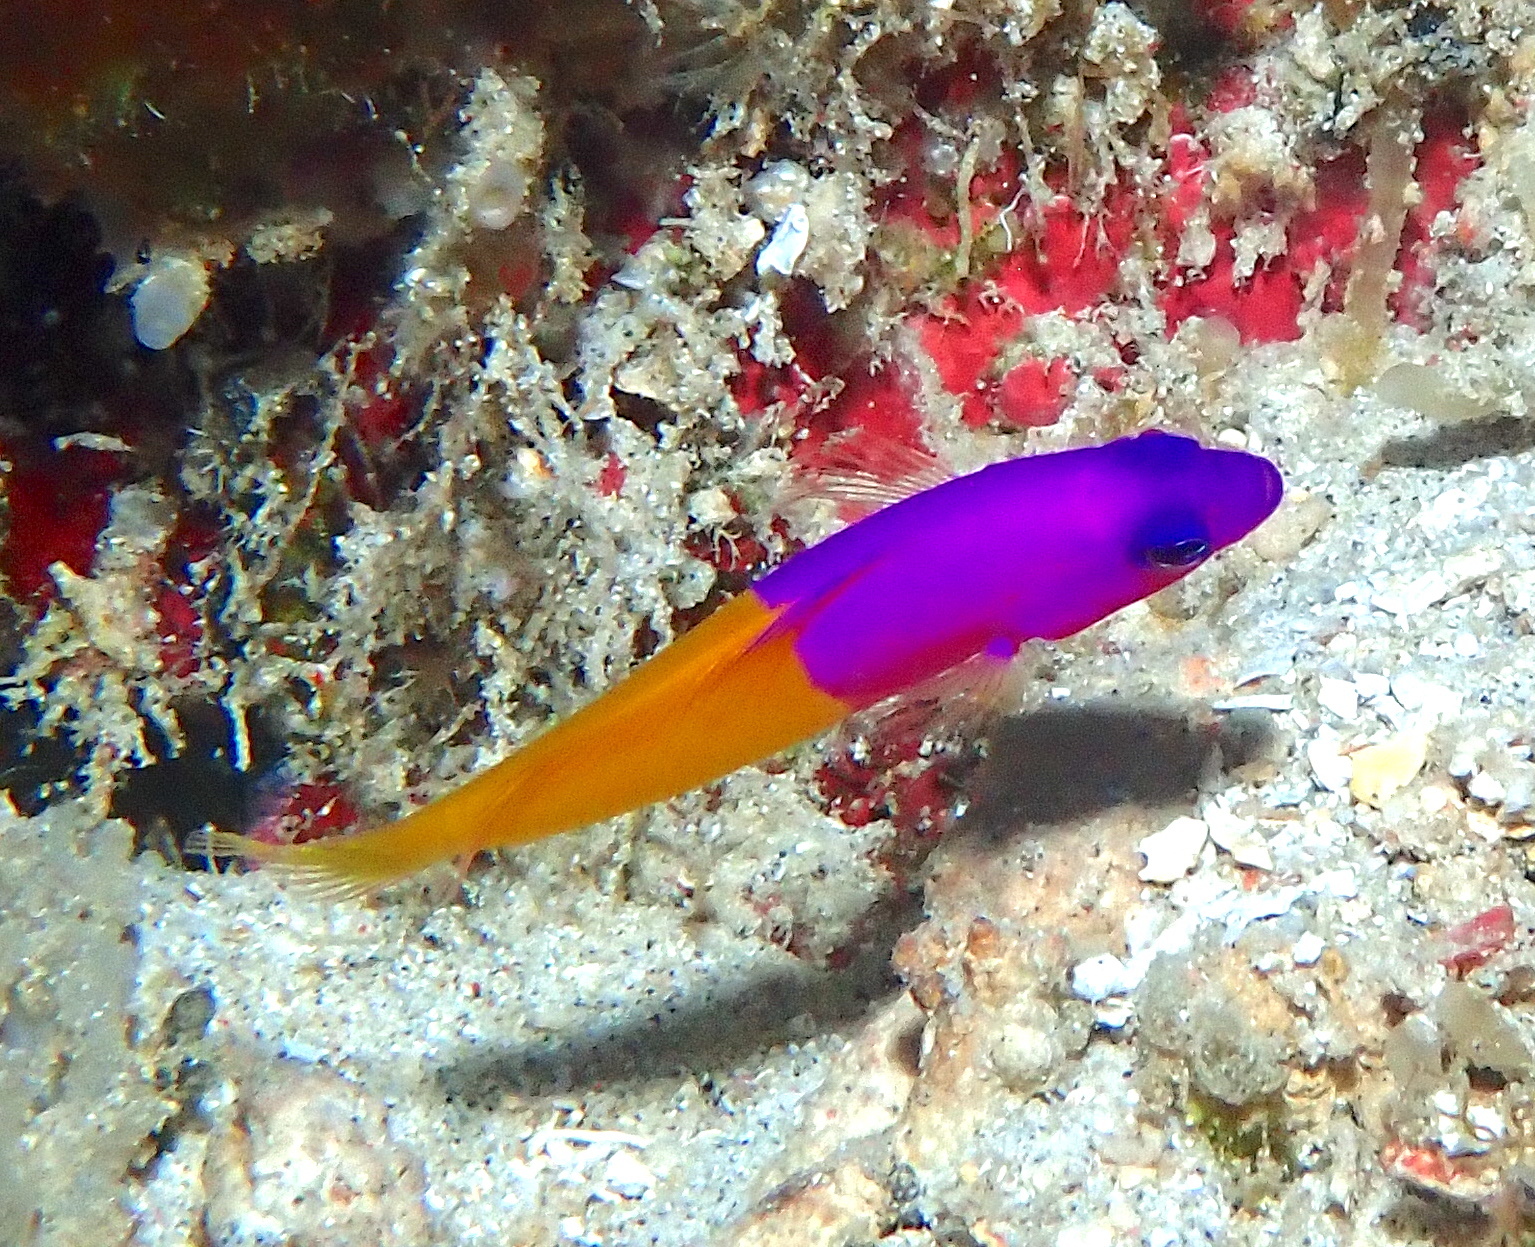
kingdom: Animalia
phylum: Chordata
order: Perciformes
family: Pseudochromidae
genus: Pictichromis
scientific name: Pictichromis paccagnellae
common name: Royal dottyback
